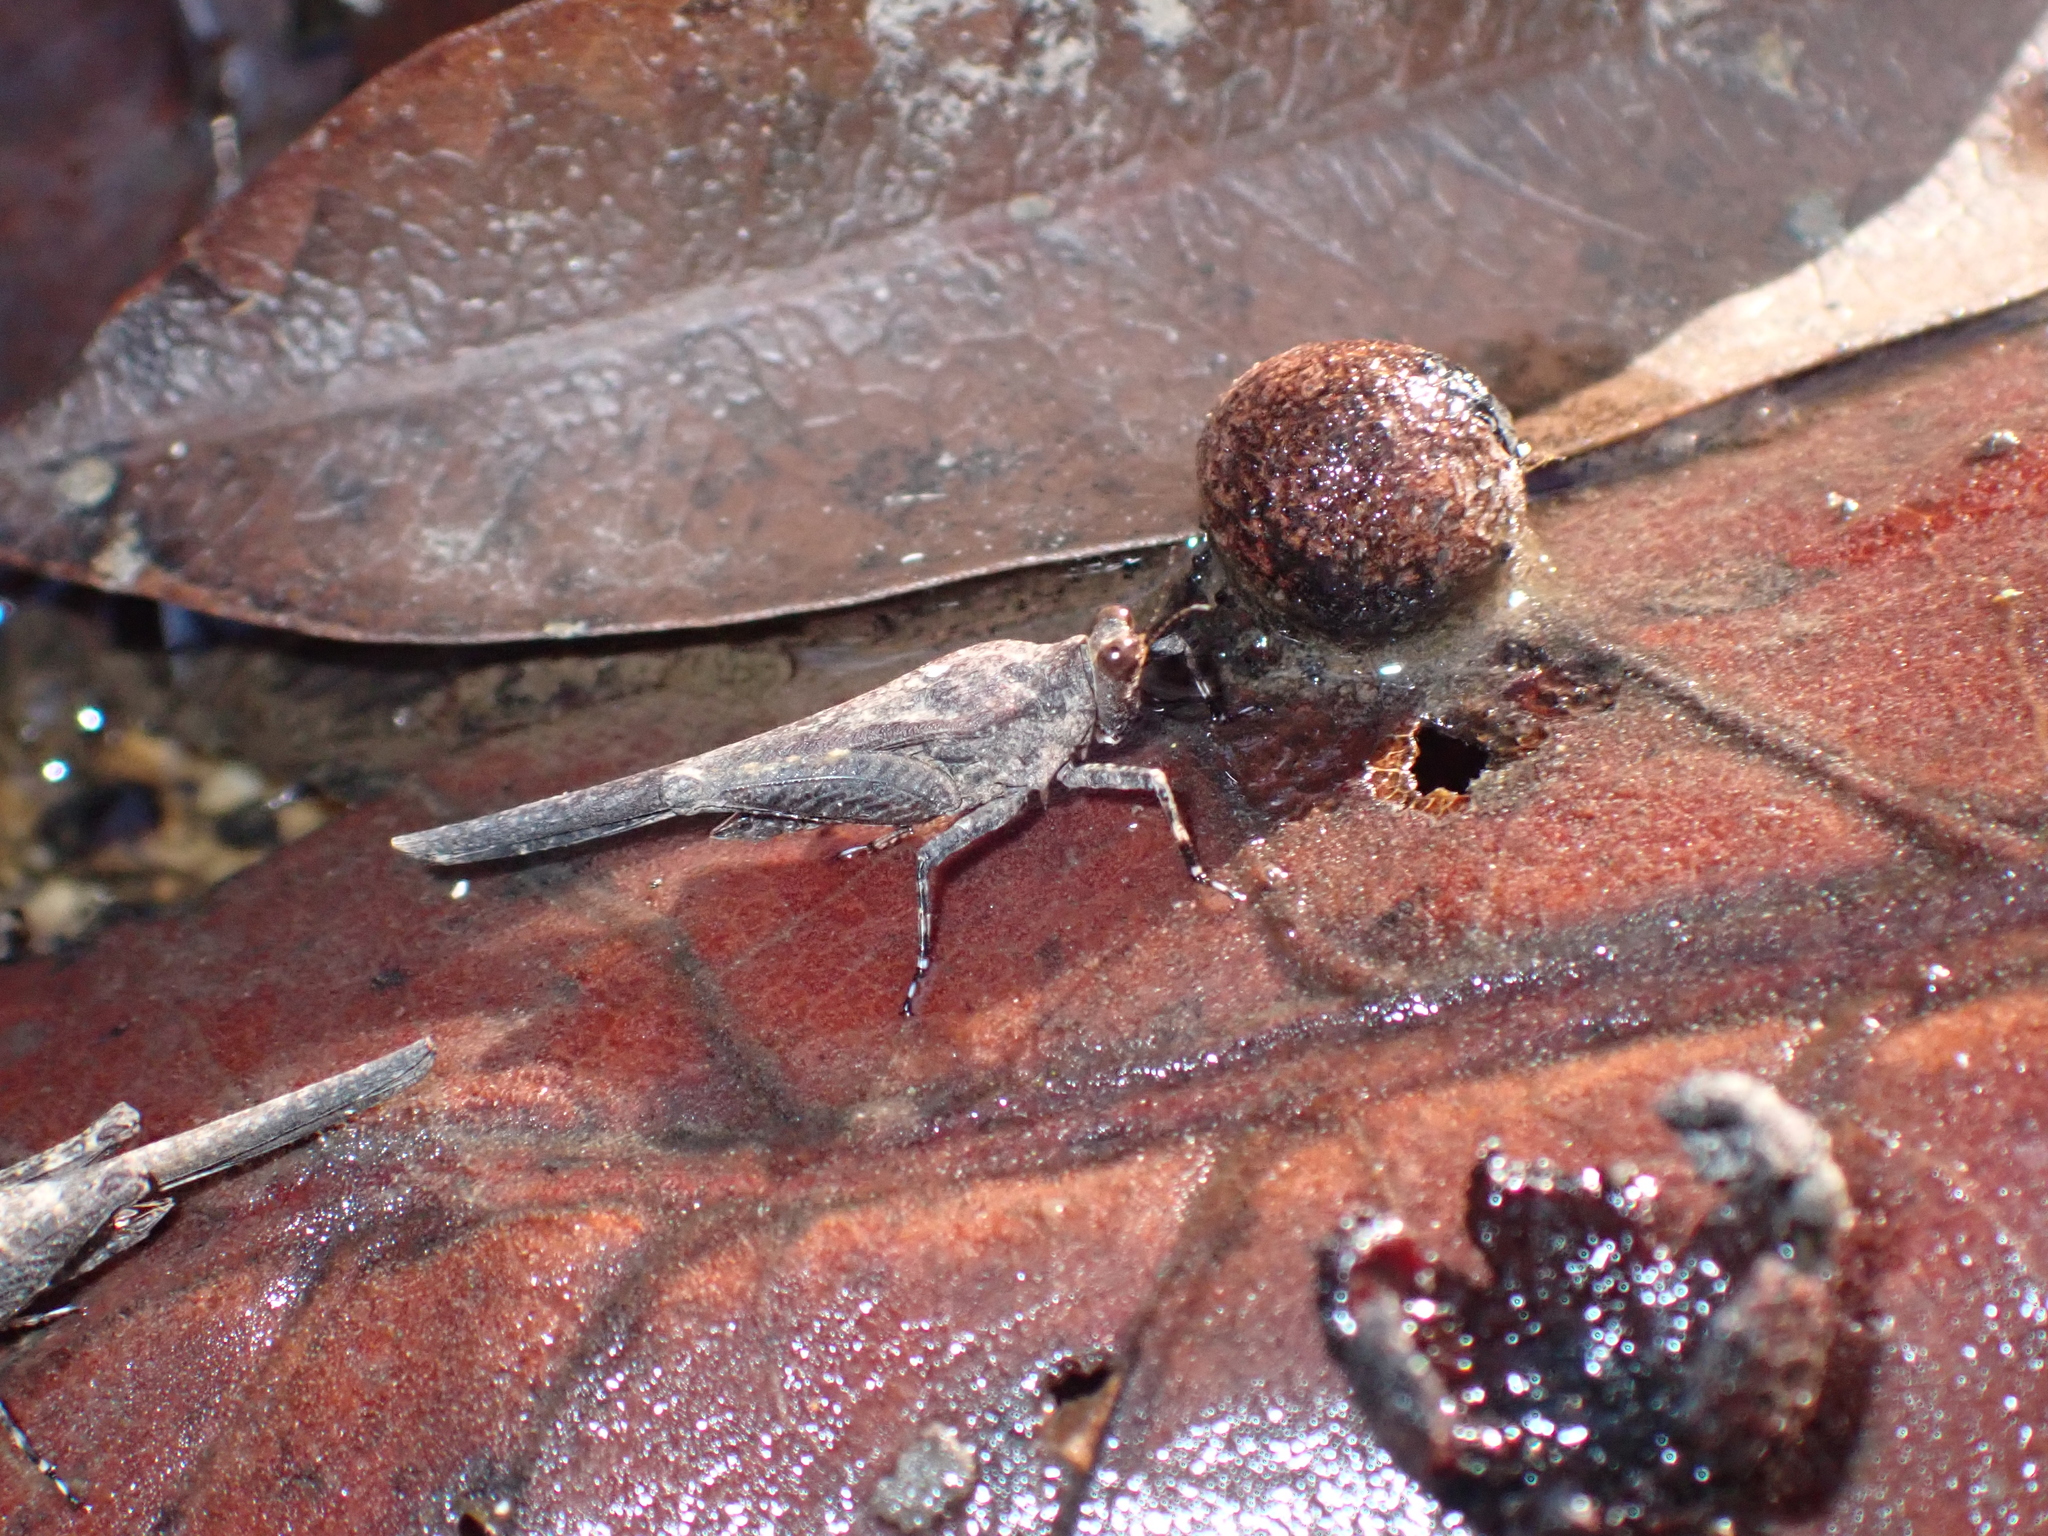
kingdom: Animalia
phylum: Arthropoda
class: Insecta
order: Orthoptera
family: Tetrigidae
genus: Criotettix
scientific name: Criotettix bispinosus
